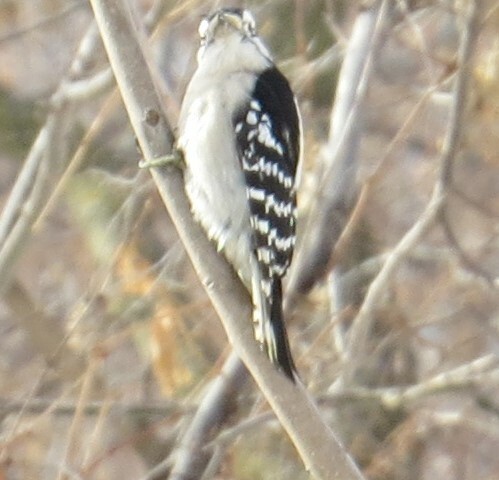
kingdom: Animalia
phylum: Chordata
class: Aves
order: Piciformes
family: Picidae
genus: Dryobates
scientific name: Dryobates pubescens
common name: Downy woodpecker
